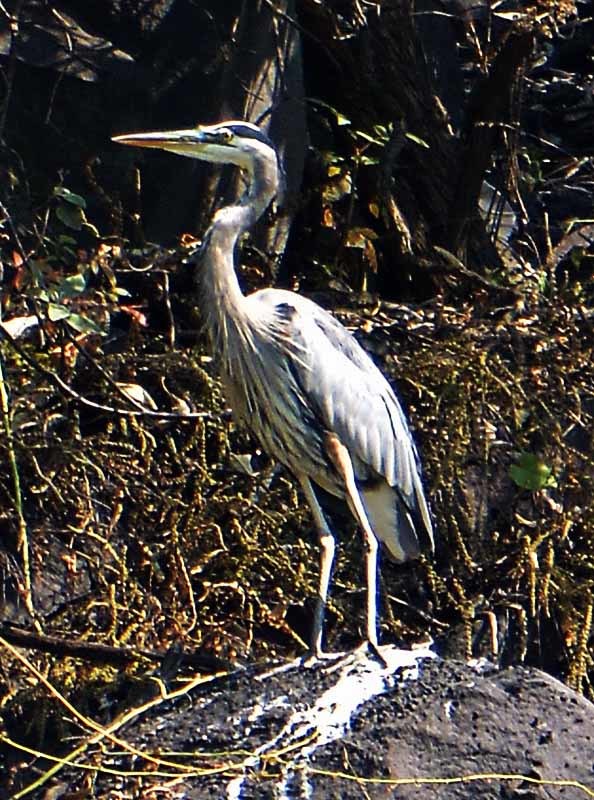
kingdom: Animalia
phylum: Chordata
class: Aves
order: Pelecaniformes
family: Ardeidae
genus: Ardea
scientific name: Ardea herodias
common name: Great blue heron
